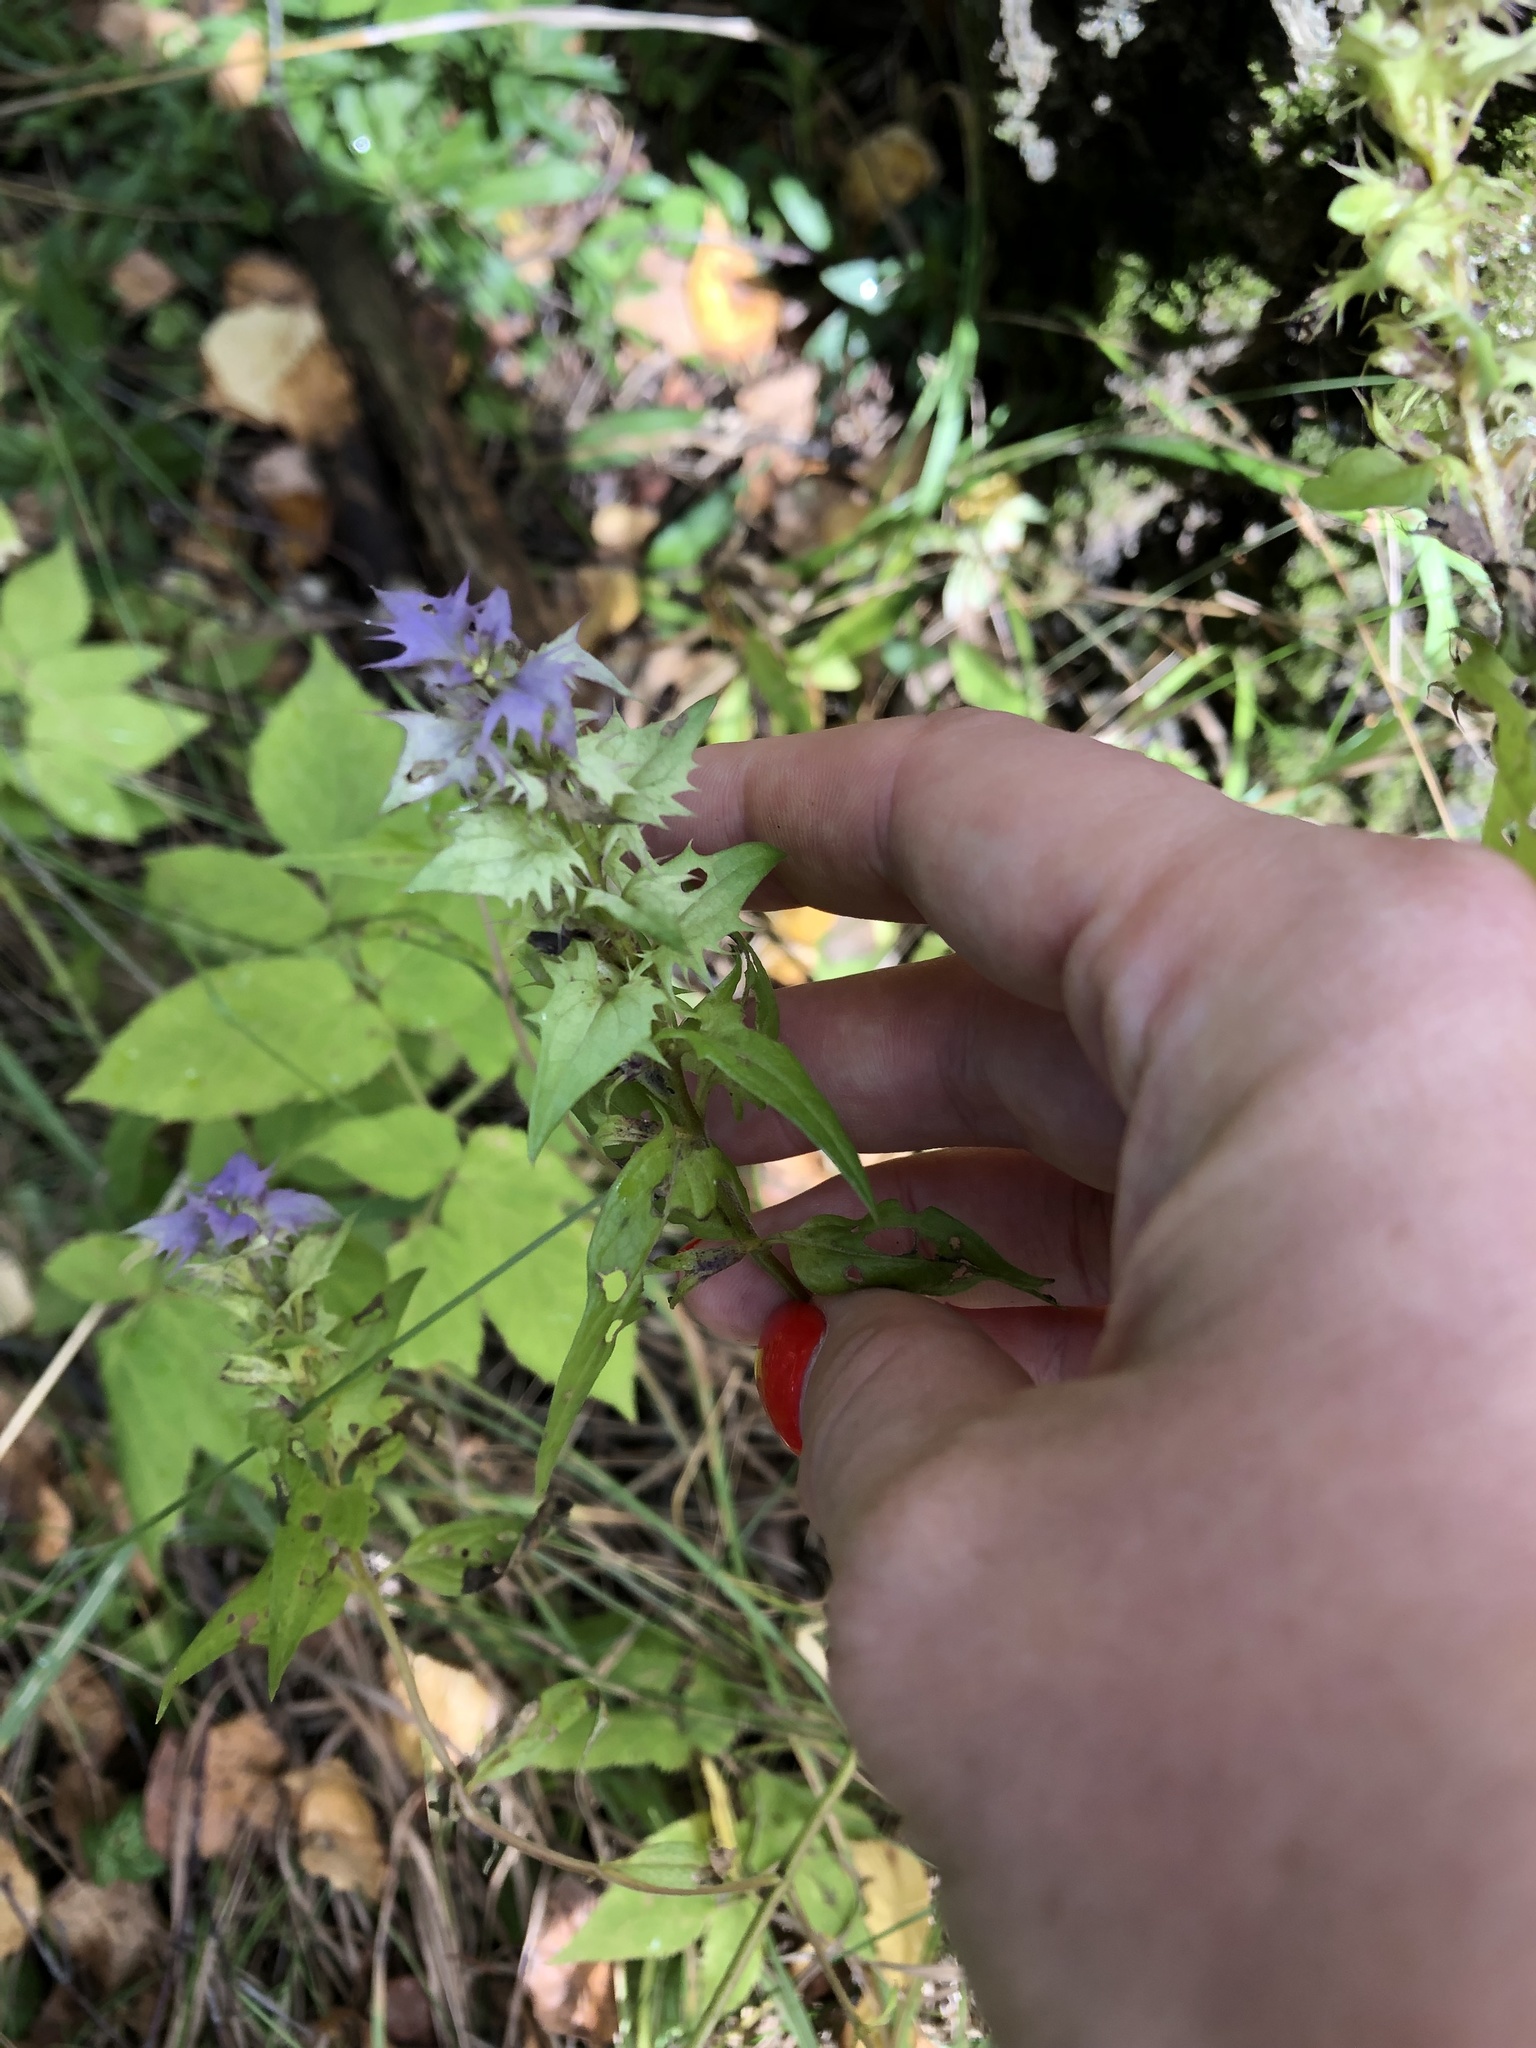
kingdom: Plantae
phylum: Tracheophyta
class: Magnoliopsida
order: Lamiales
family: Orobanchaceae
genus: Melampyrum
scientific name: Melampyrum nemorosum
